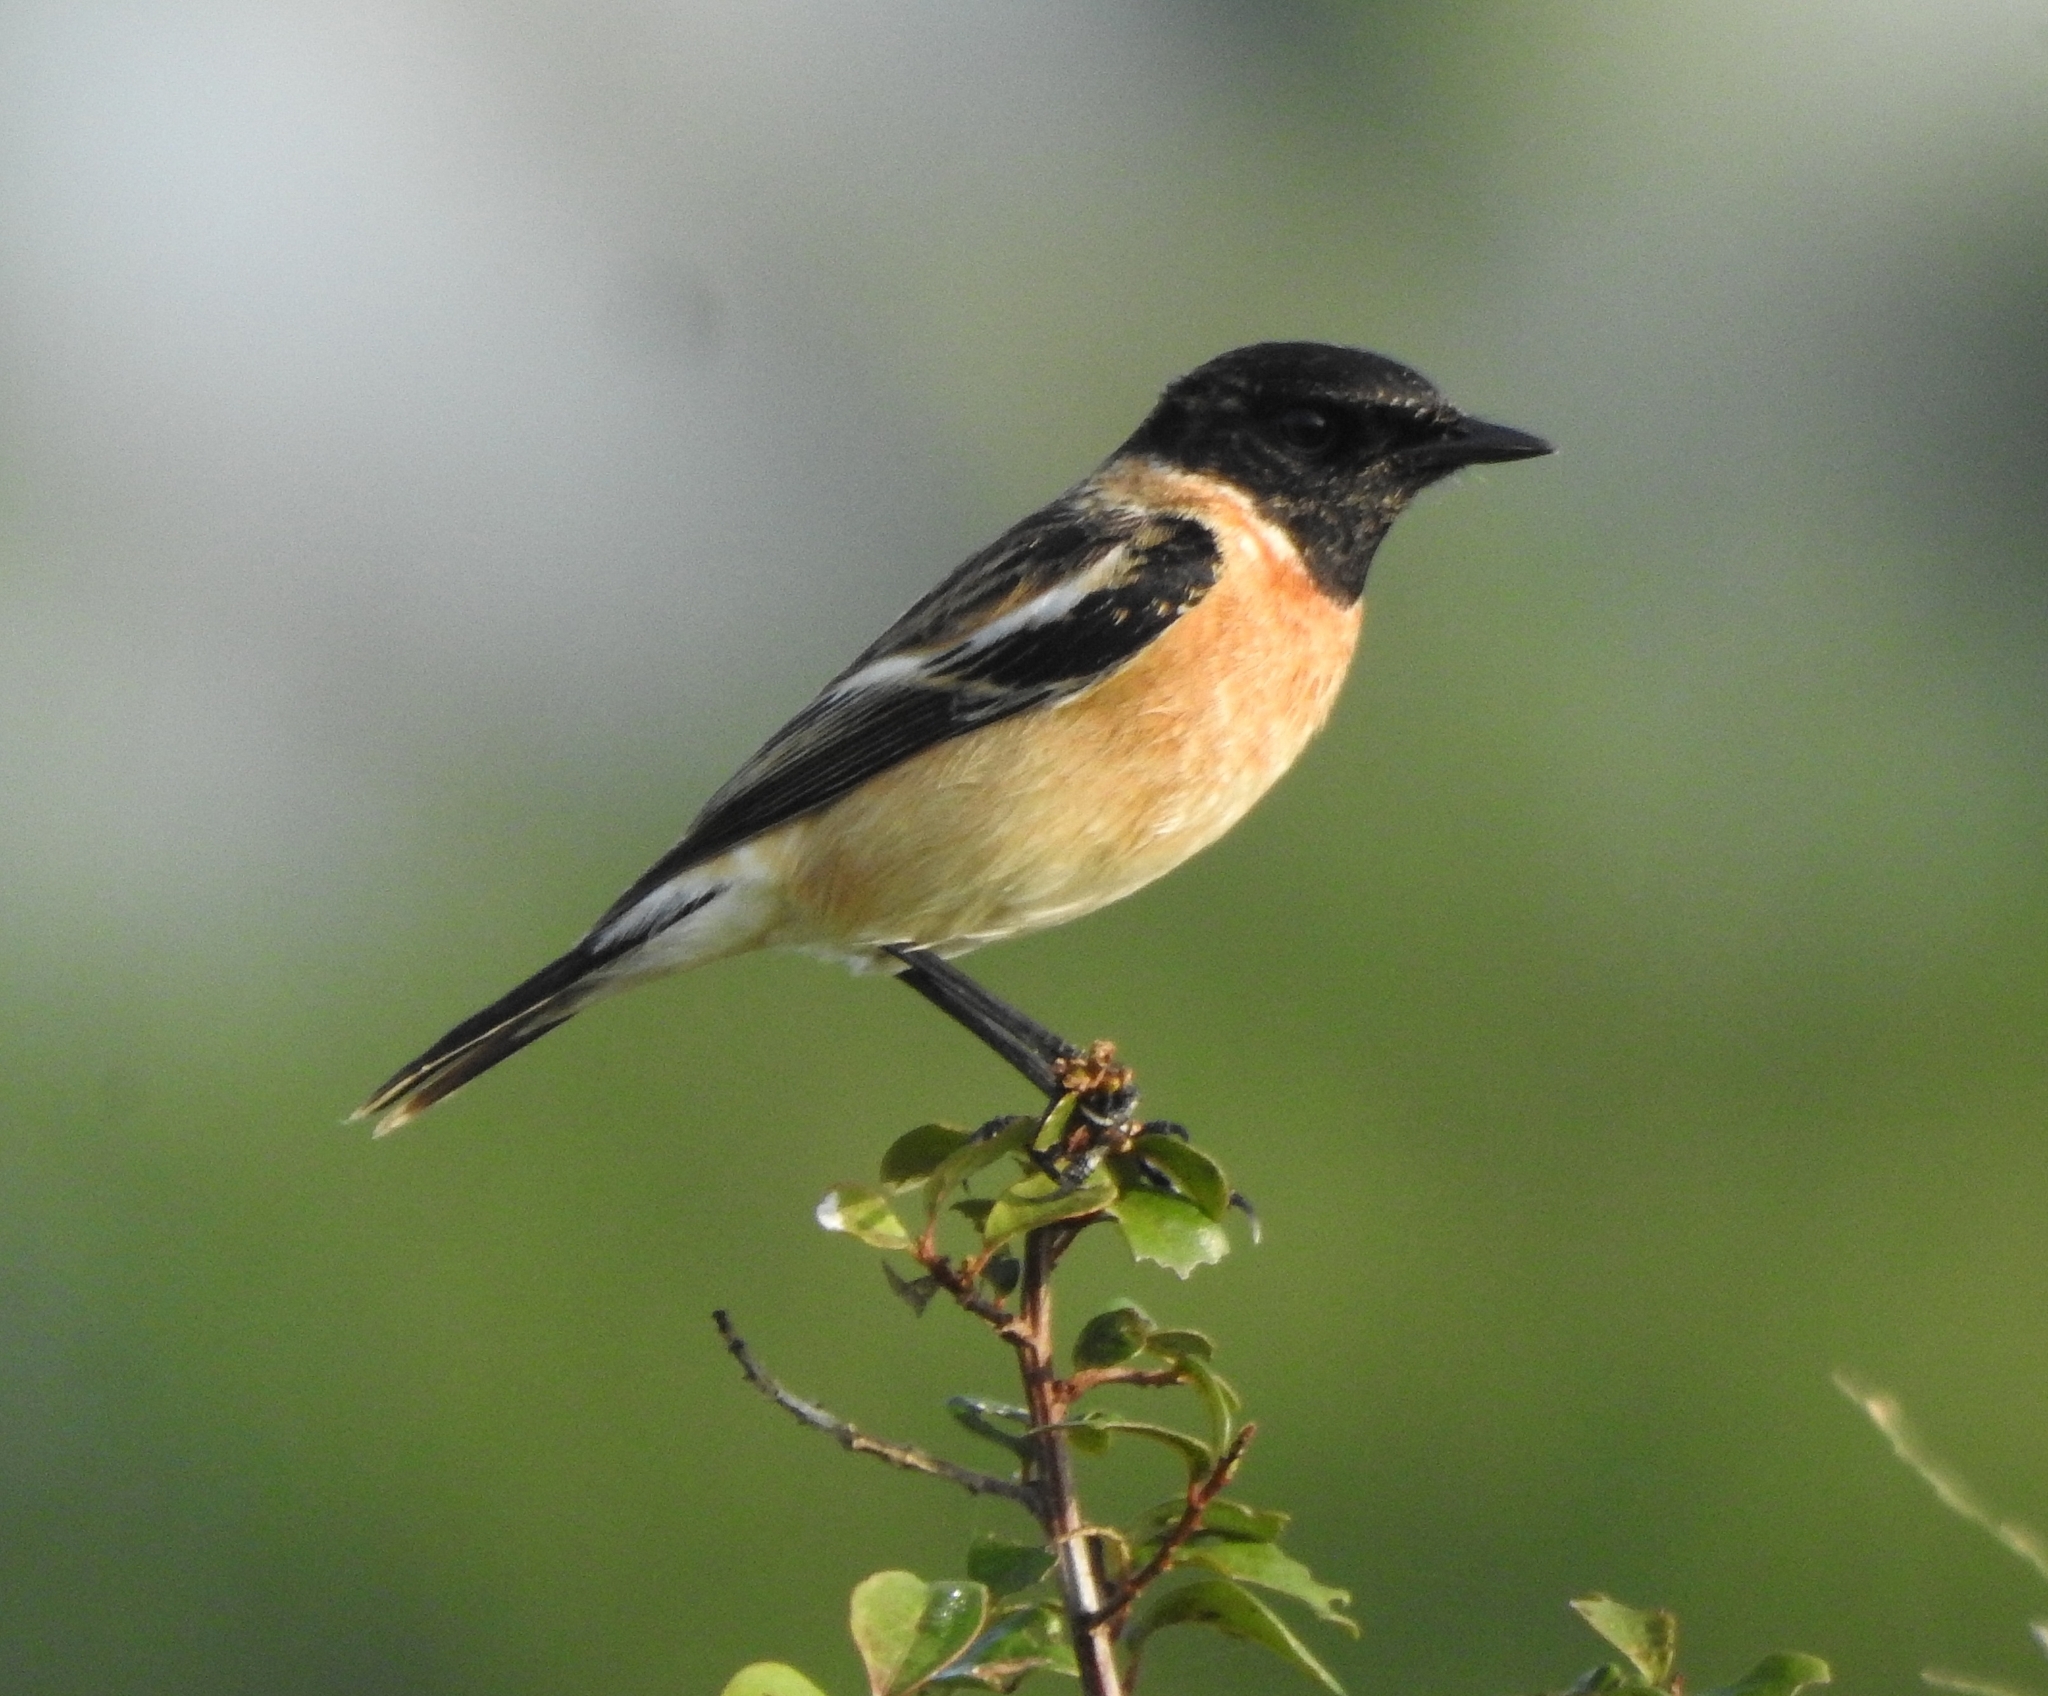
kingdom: Animalia
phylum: Chordata
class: Aves
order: Passeriformes
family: Muscicapidae
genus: Saxicola
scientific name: Saxicola maurus
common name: Siberian stonechat
